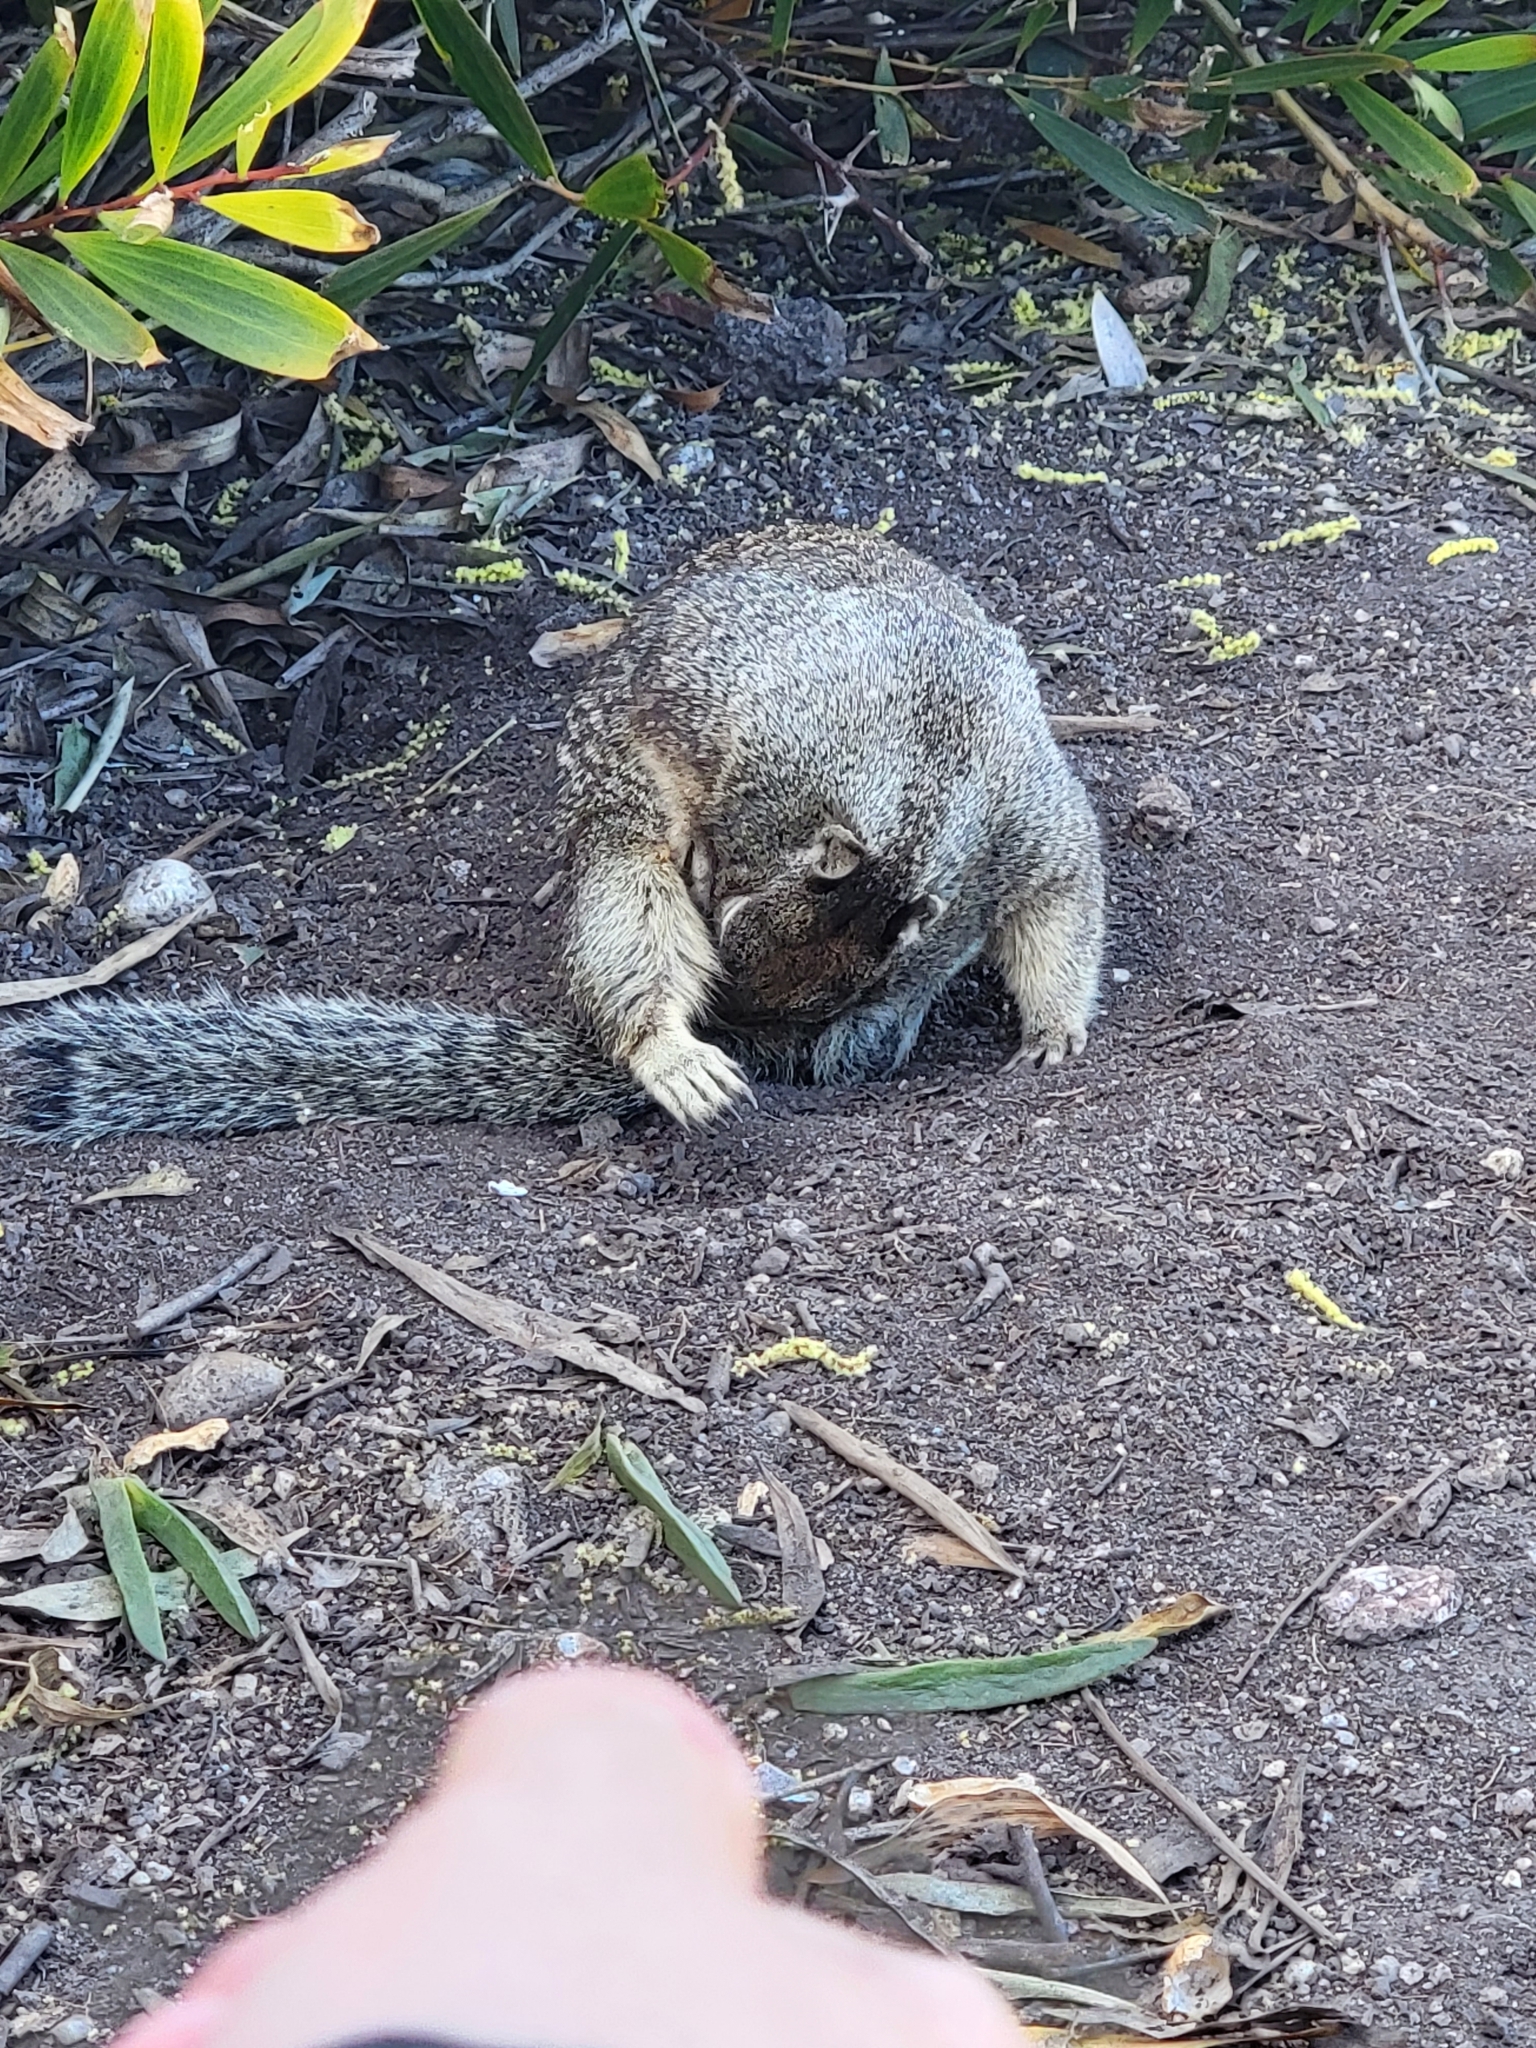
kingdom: Animalia
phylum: Chordata
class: Mammalia
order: Rodentia
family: Sciuridae
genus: Otospermophilus
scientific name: Otospermophilus beecheyi
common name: California ground squirrel
